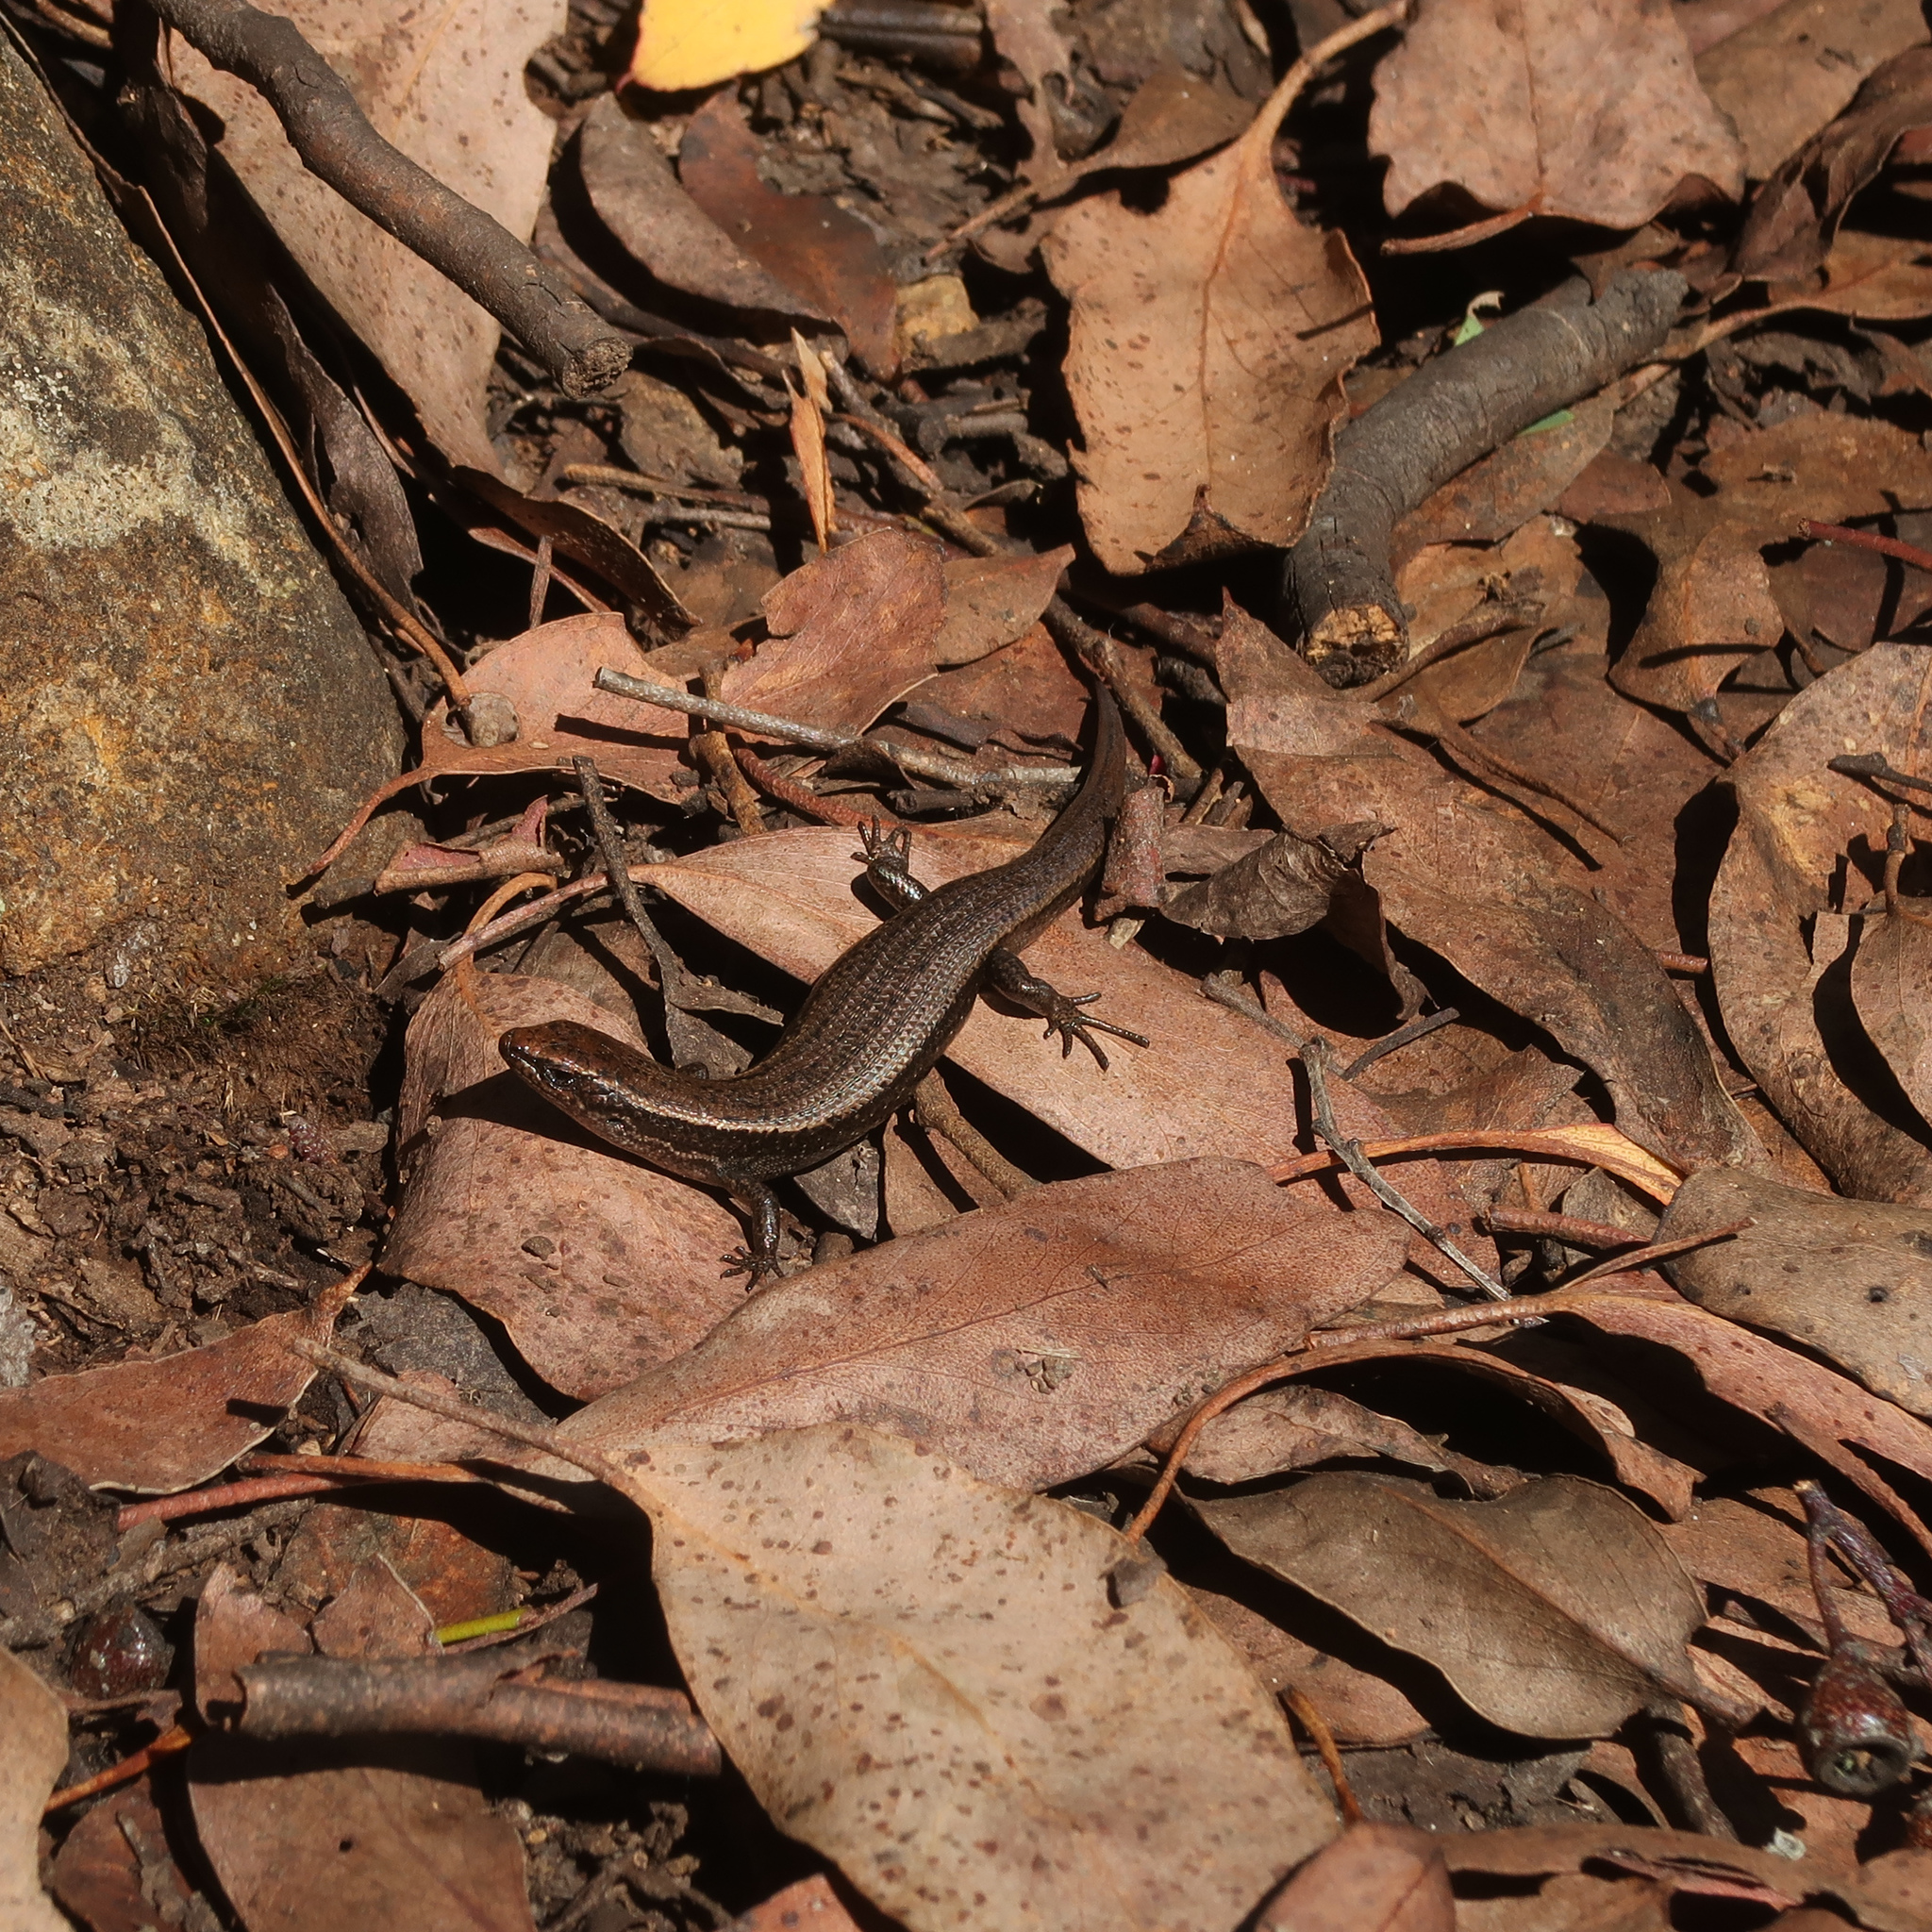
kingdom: Animalia
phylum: Chordata
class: Squamata
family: Scincidae
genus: Carinascincus
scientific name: Carinascincus metallicus
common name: Metallic cool-skink
